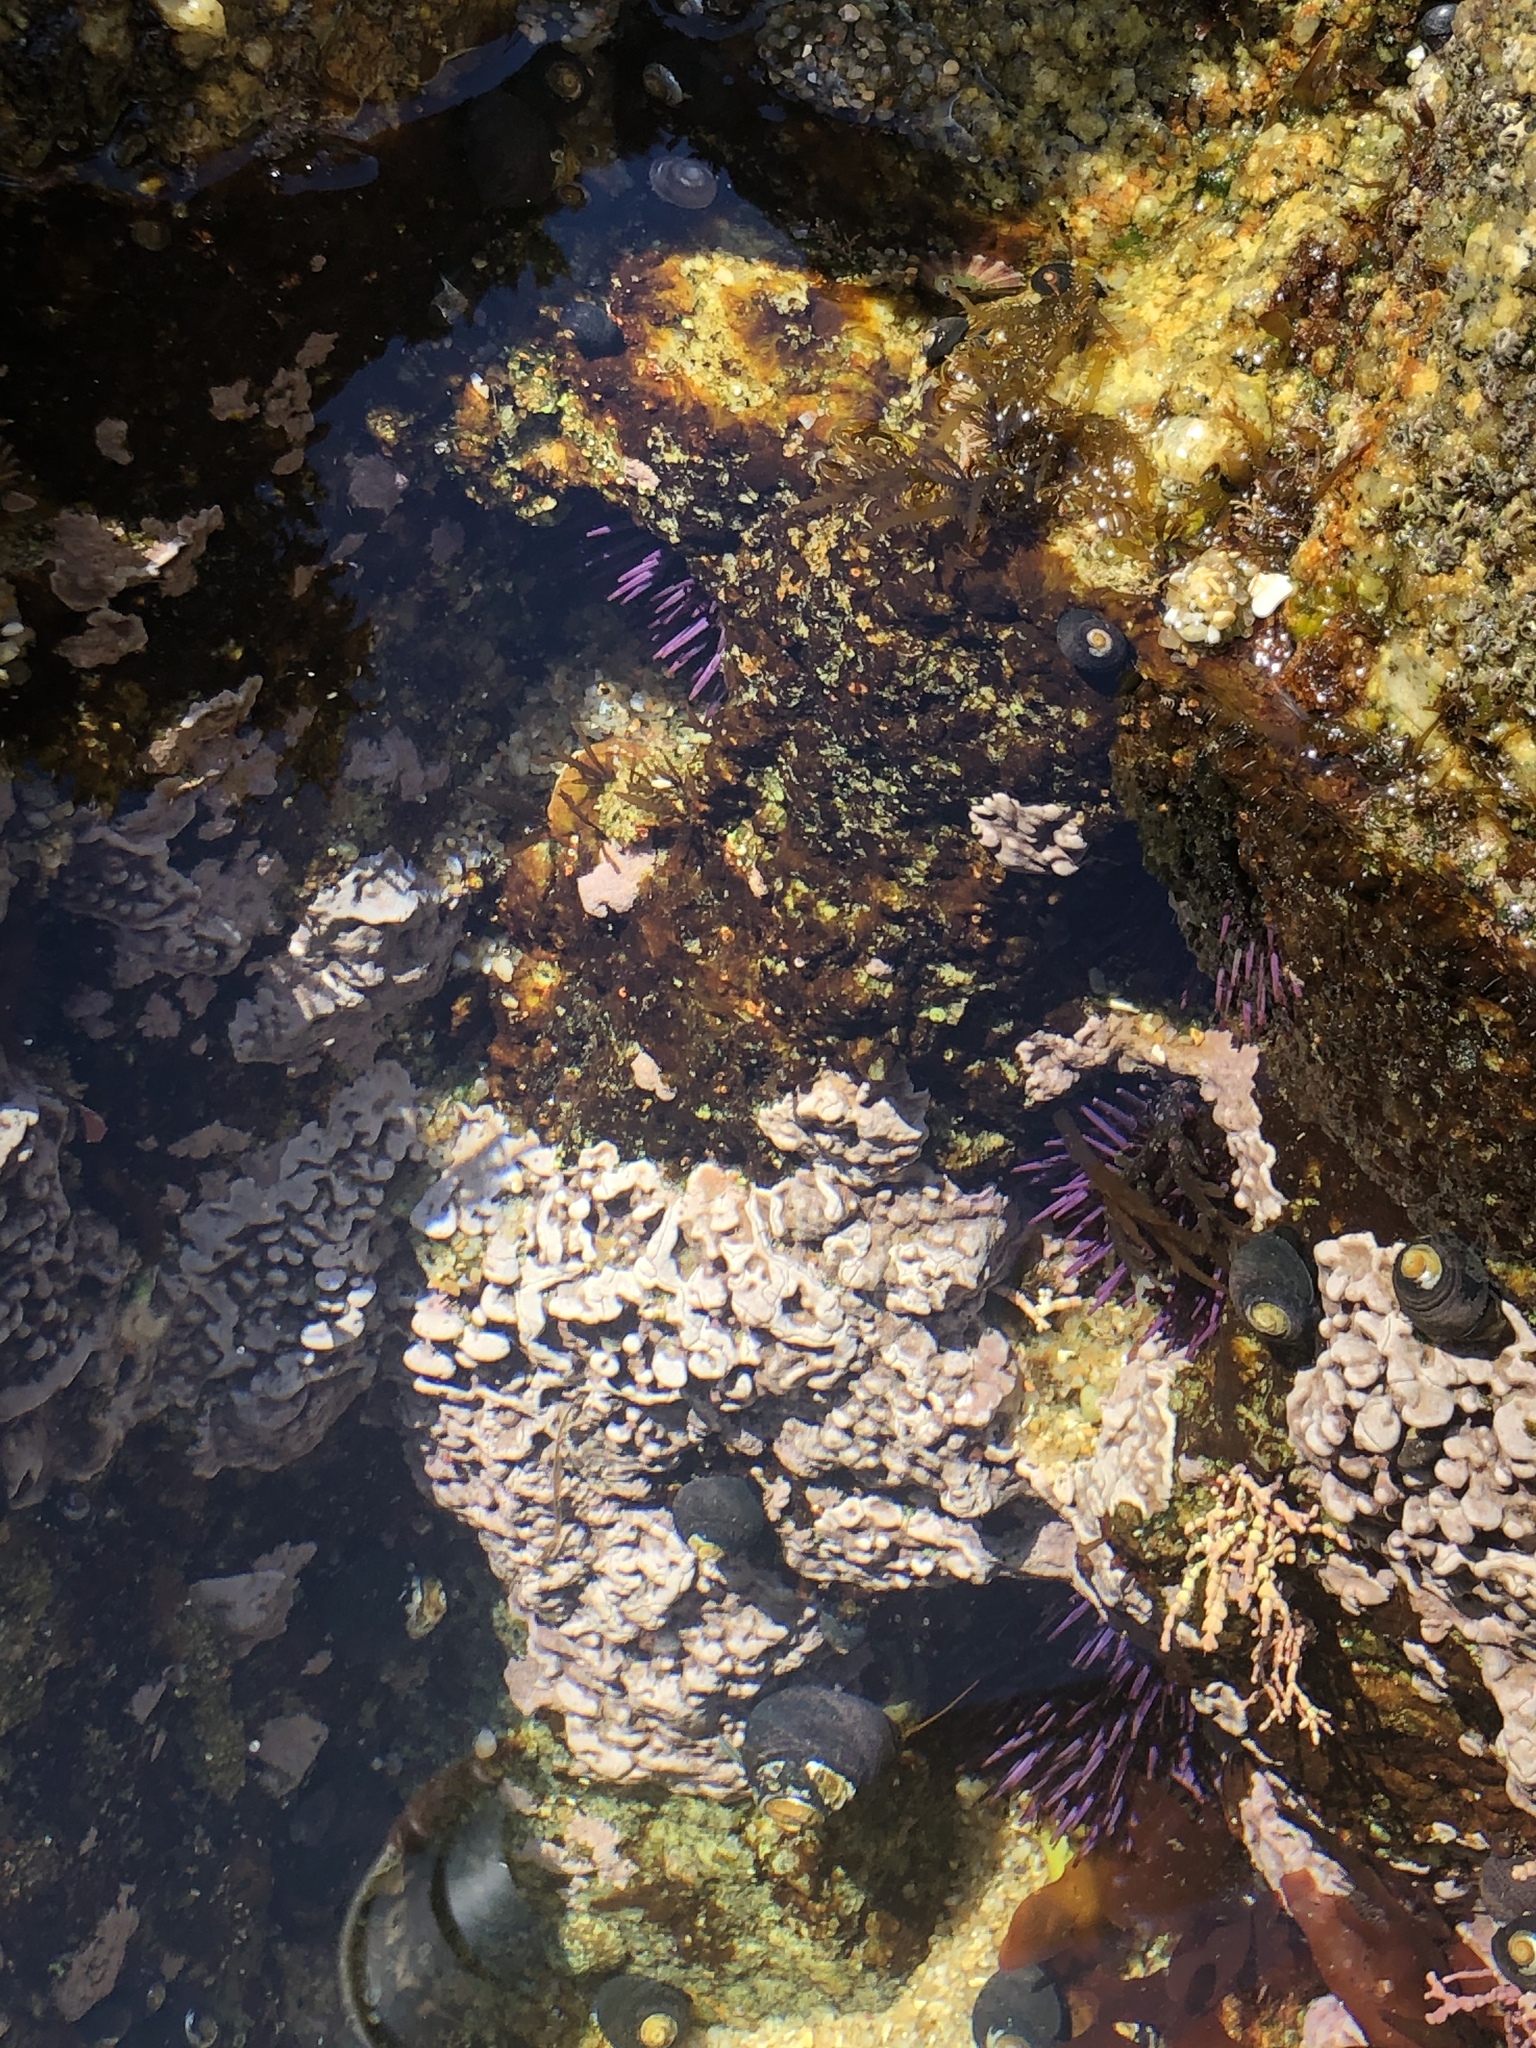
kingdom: Animalia
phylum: Echinodermata
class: Echinoidea
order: Camarodonta
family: Strongylocentrotidae
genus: Strongylocentrotus
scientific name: Strongylocentrotus purpuratus
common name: Purple sea urchin
